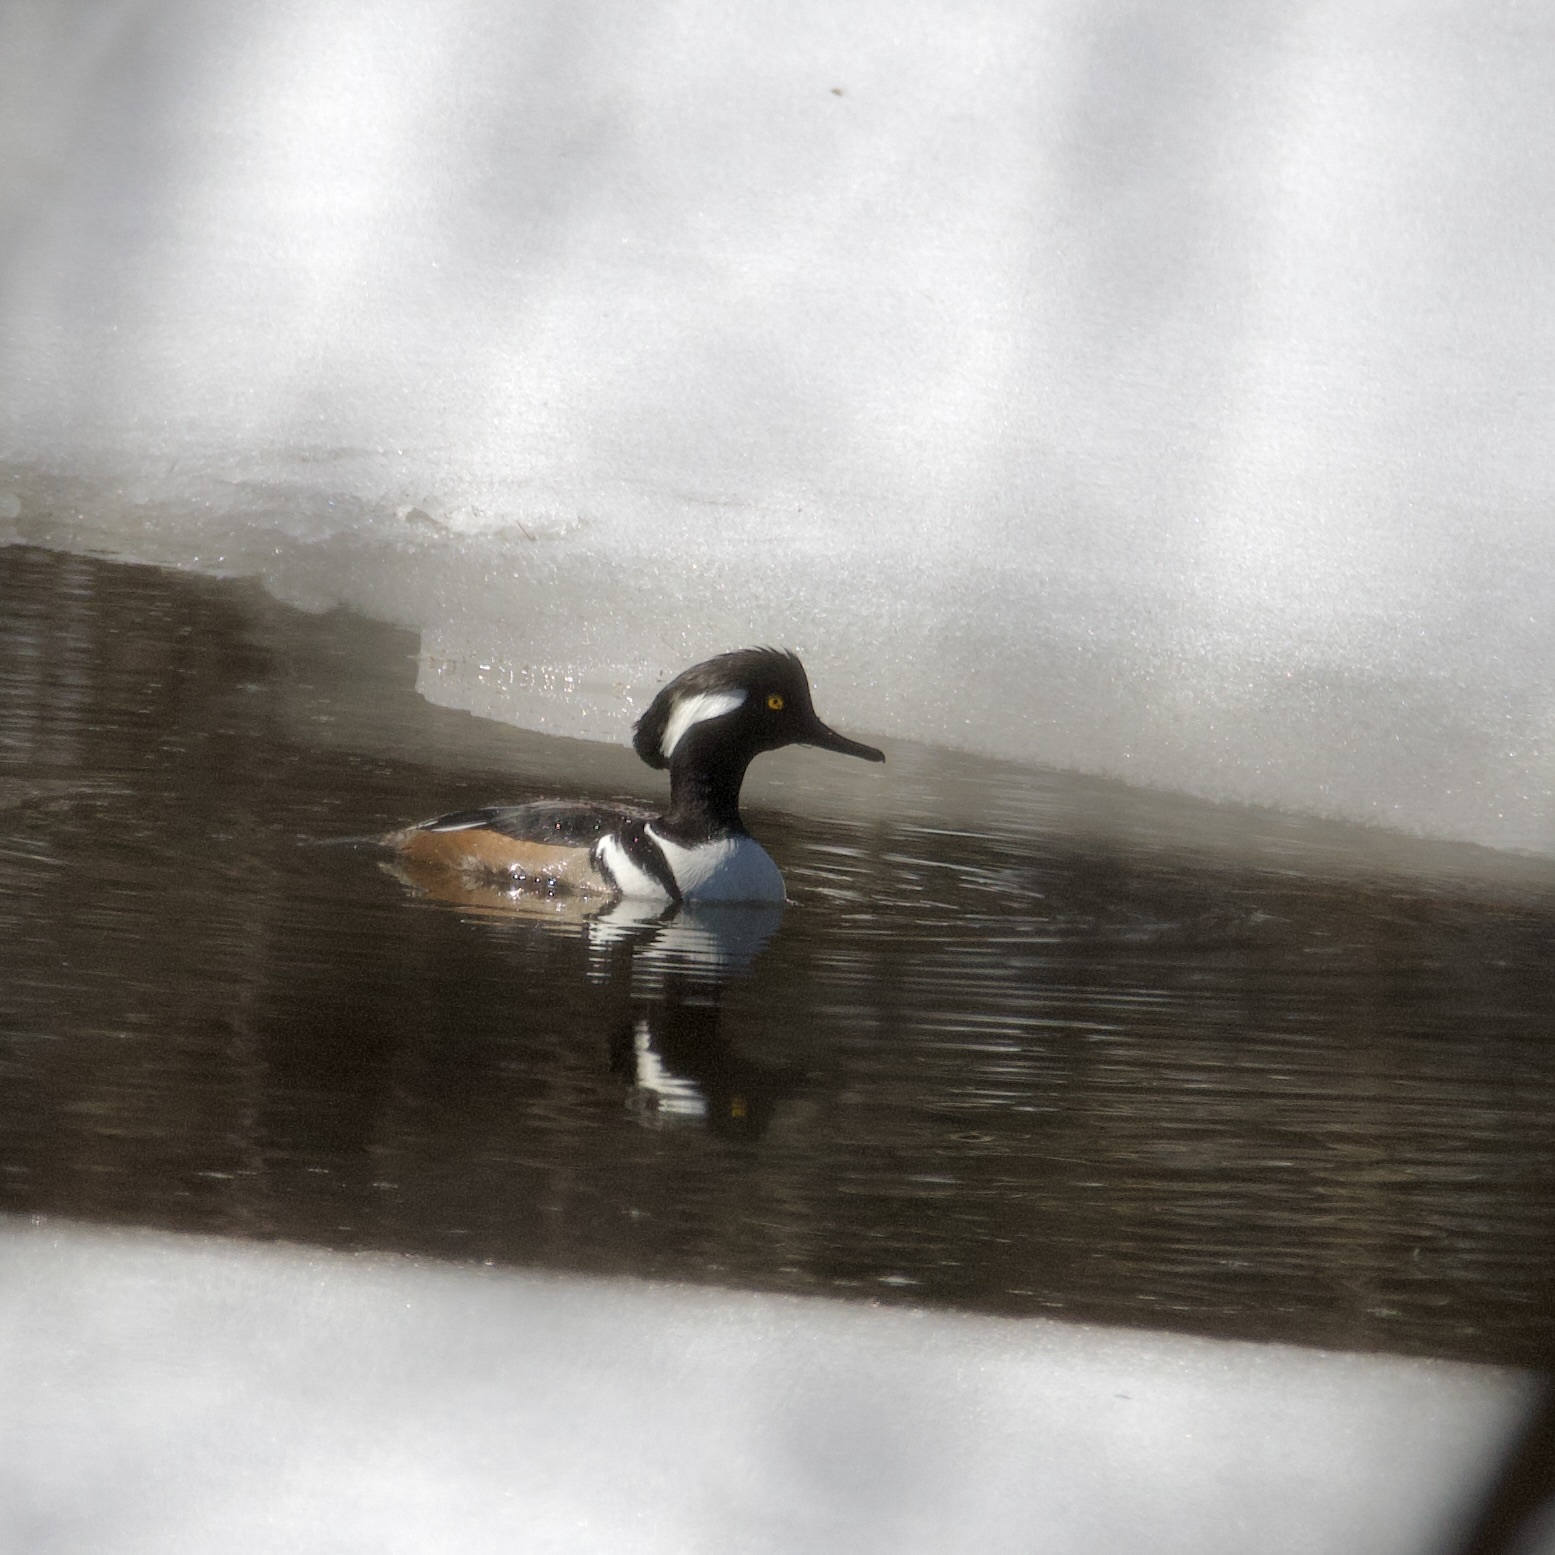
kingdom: Animalia
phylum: Chordata
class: Aves
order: Anseriformes
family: Anatidae
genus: Lophodytes
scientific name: Lophodytes cucullatus
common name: Hooded merganser
